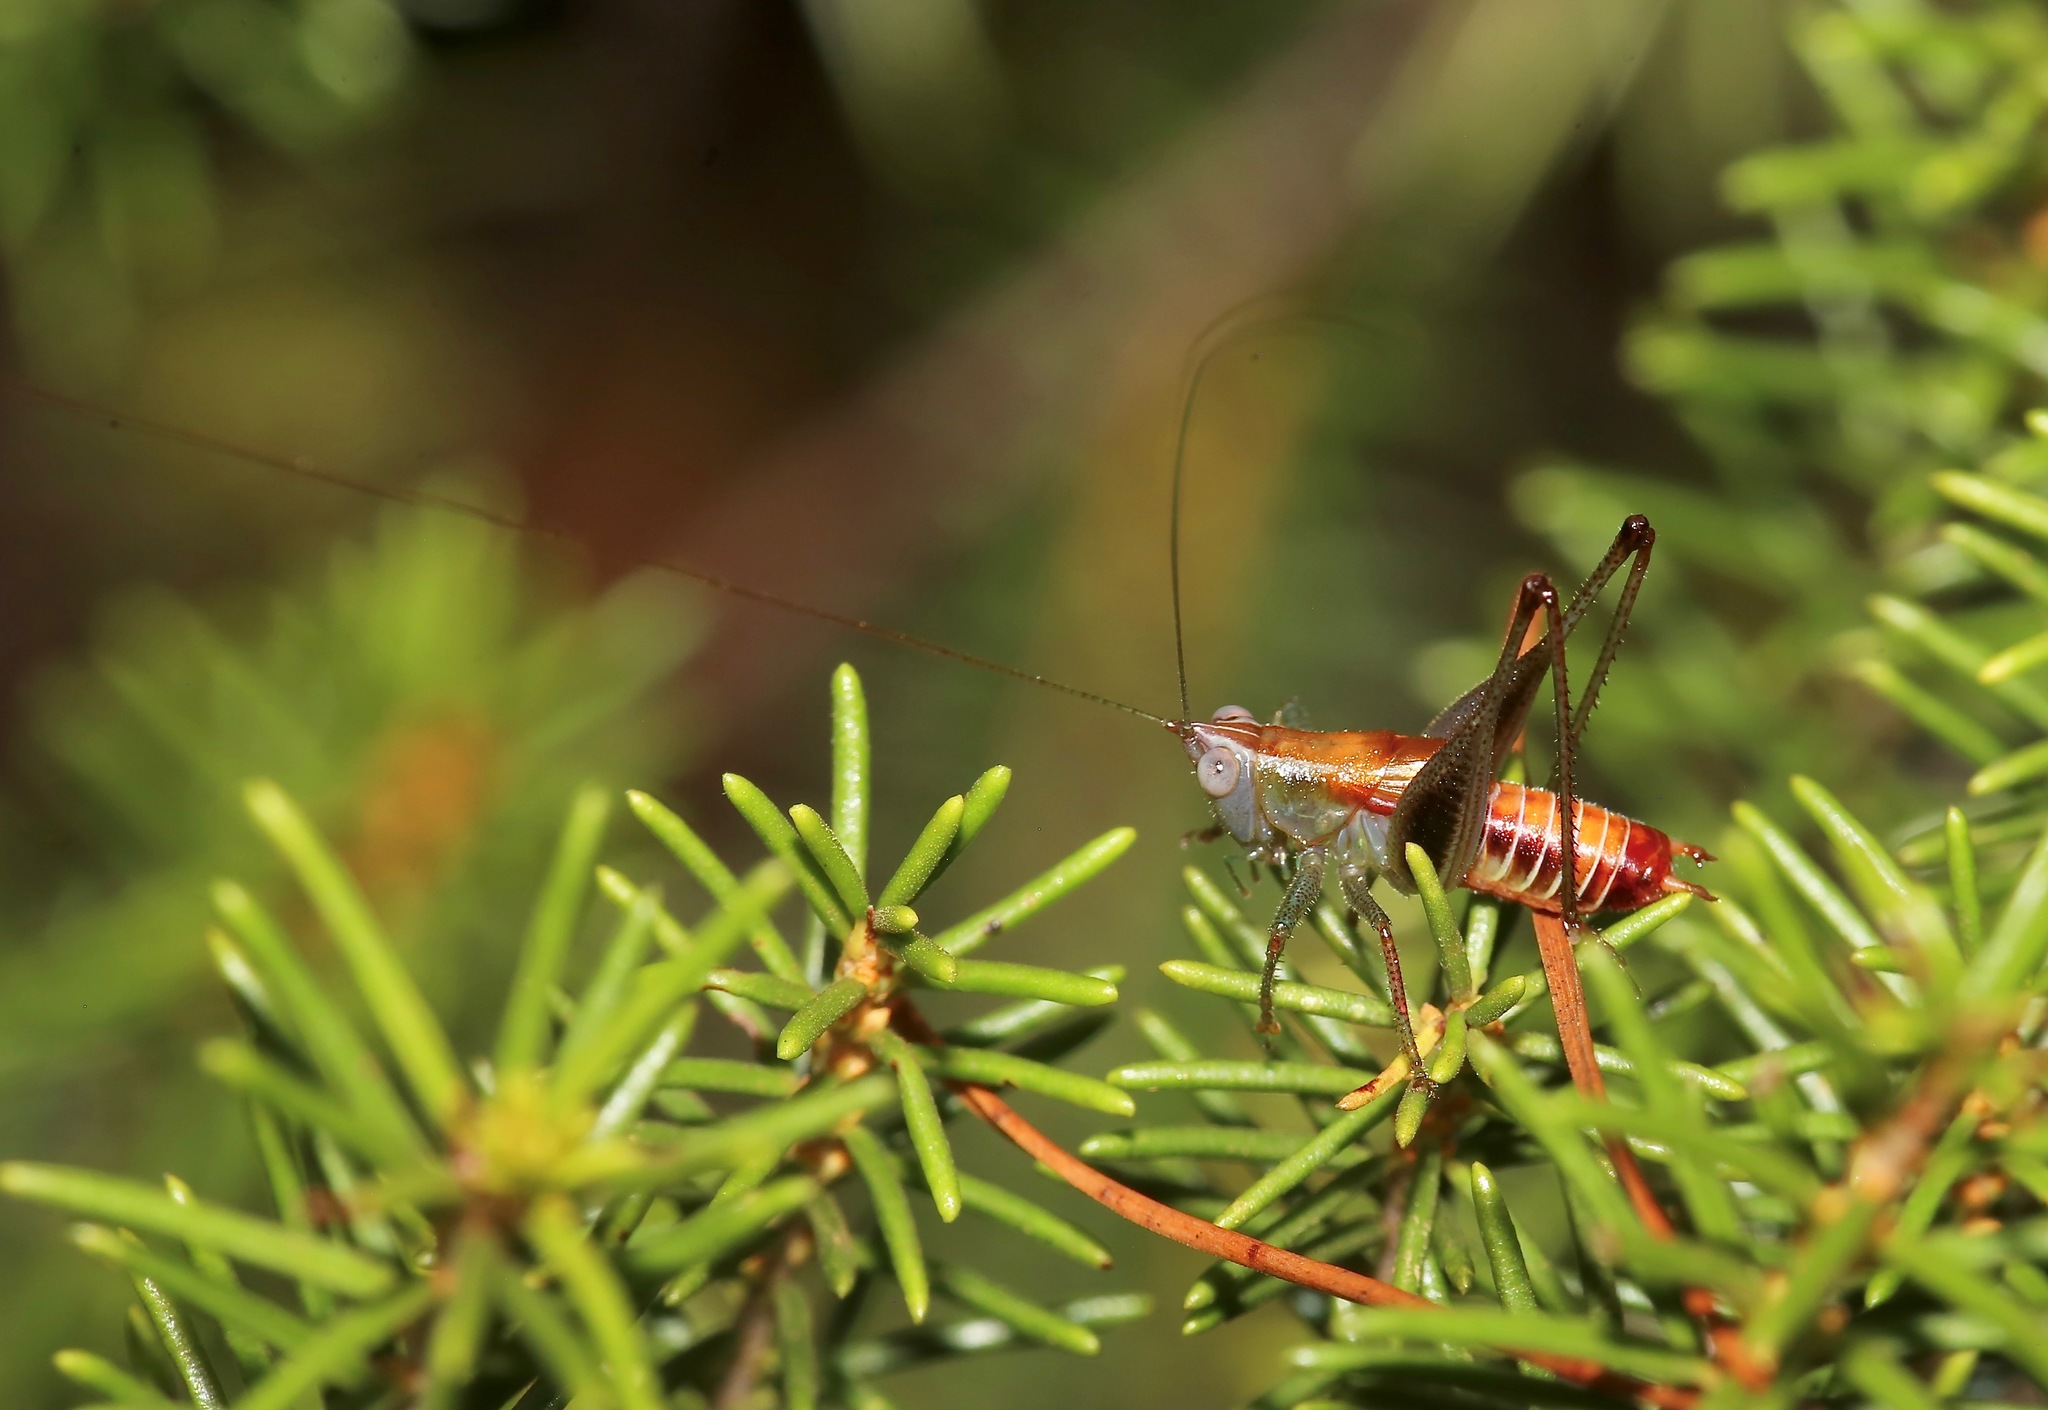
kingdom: Animalia
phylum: Arthropoda
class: Insecta
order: Orthoptera
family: Tettigoniidae
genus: Odontoxiphidium
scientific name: Odontoxiphidium apterum
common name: Wingless meadow katydid
